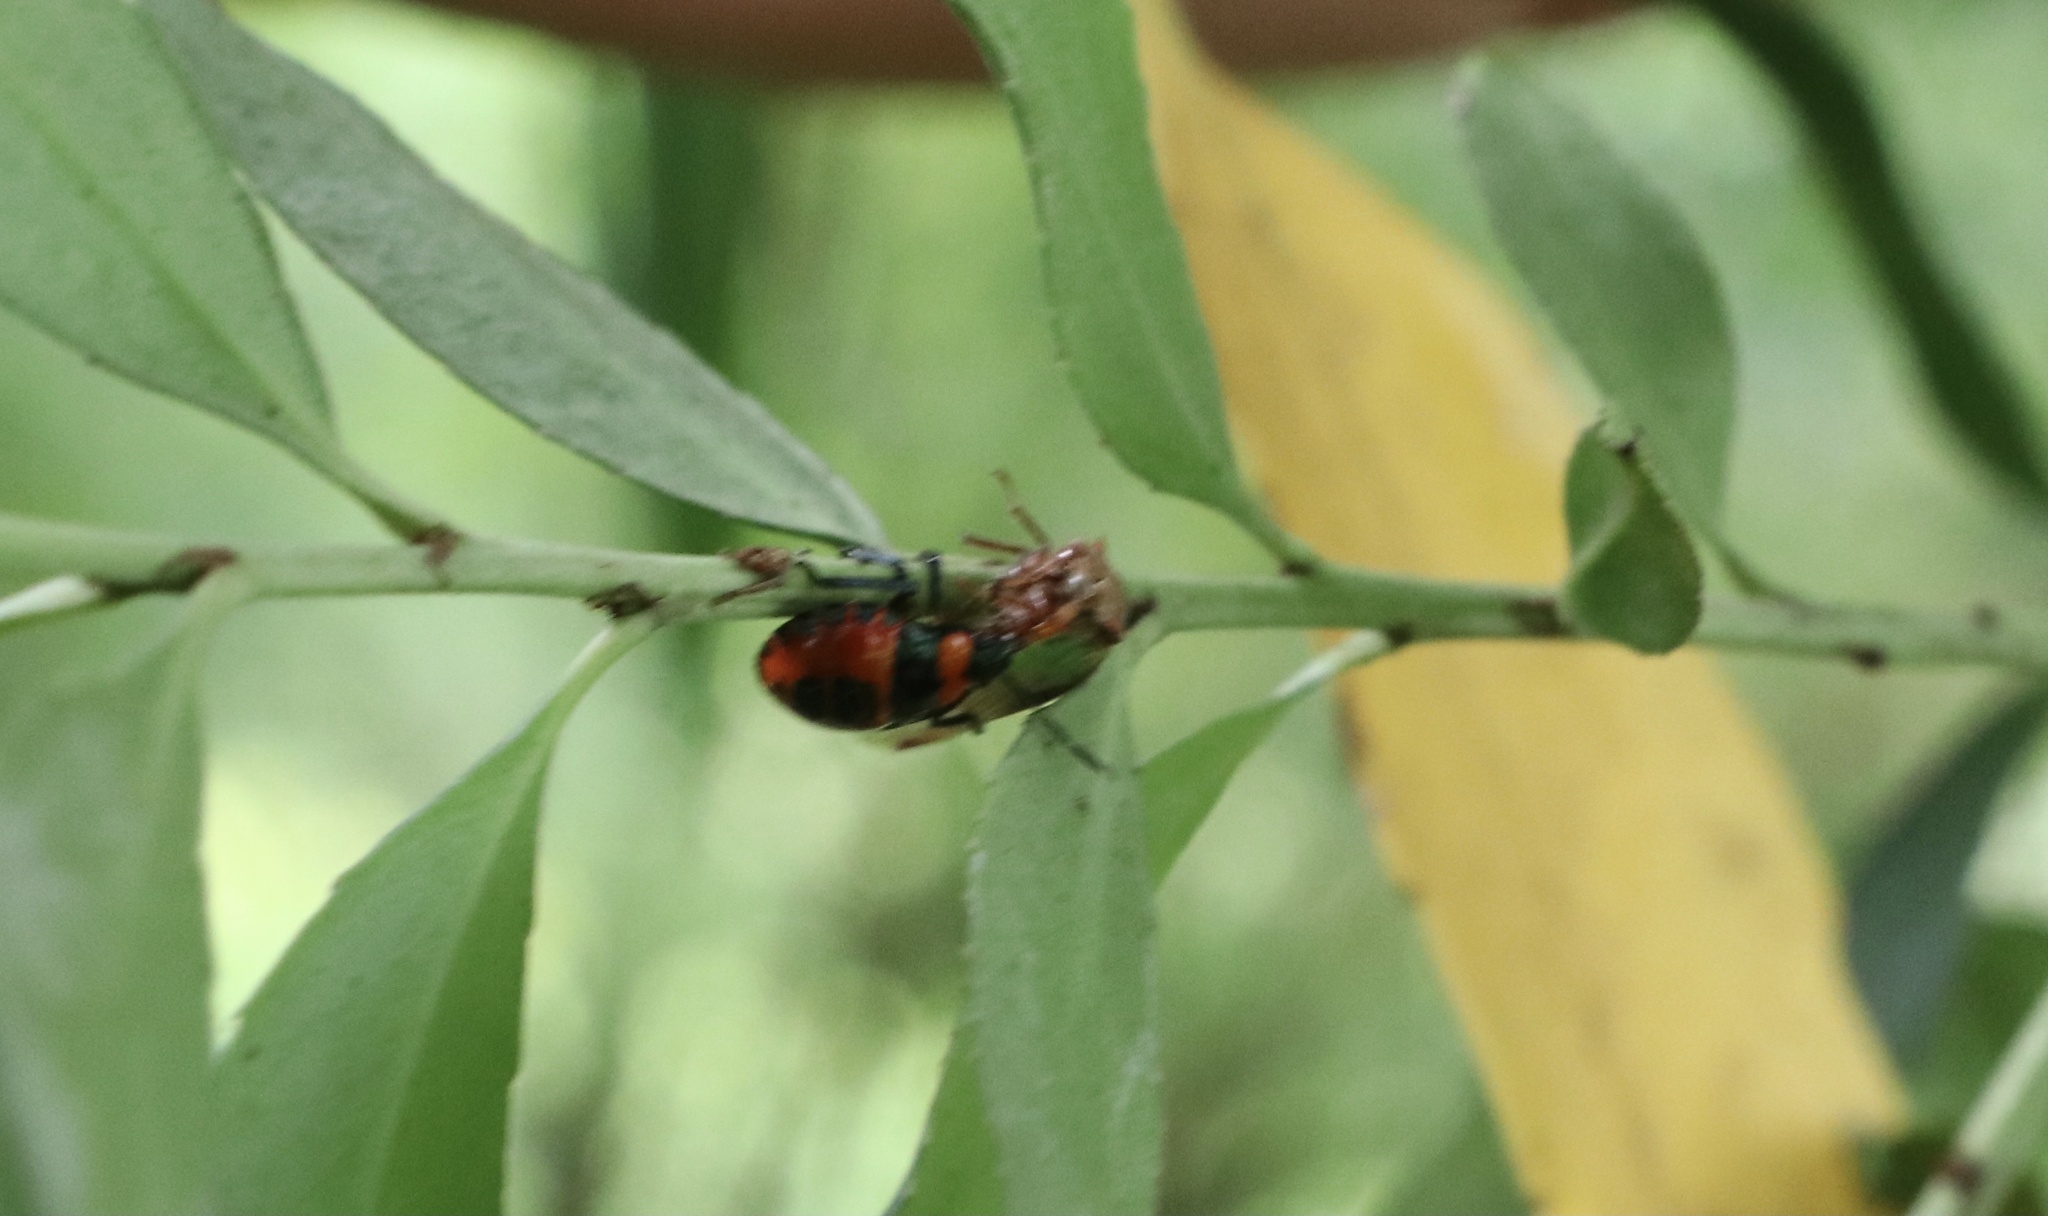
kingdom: Animalia
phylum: Arthropoda
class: Insecta
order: Hemiptera
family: Pentatomidae
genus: Brontocoris
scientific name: Brontocoris
